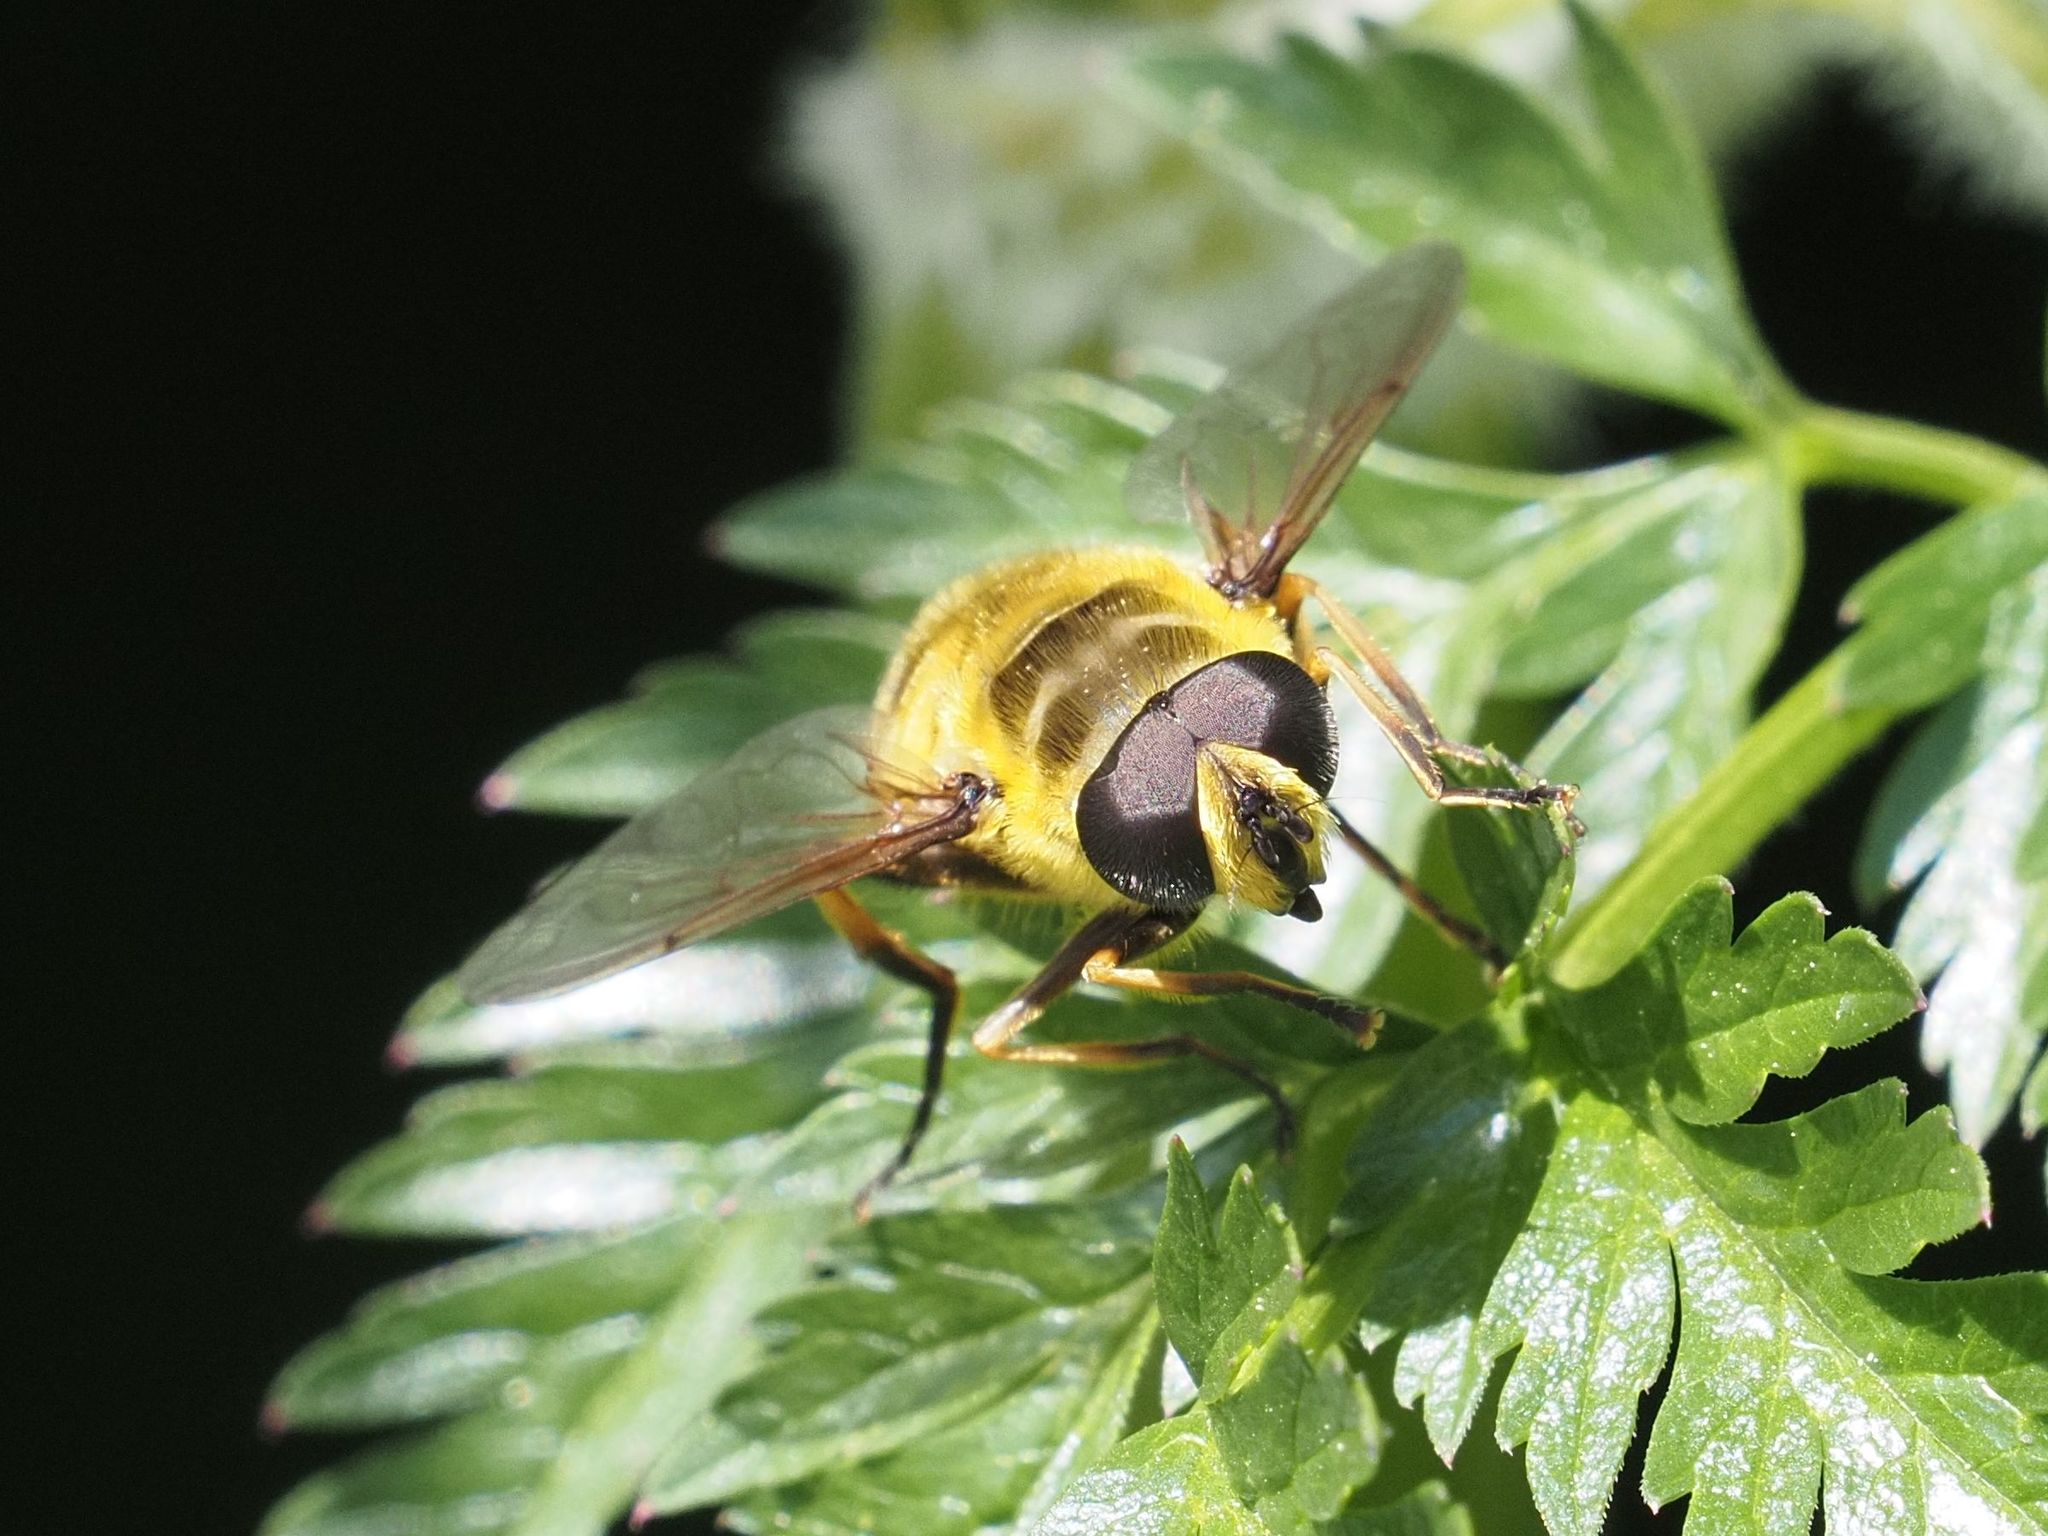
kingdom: Animalia
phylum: Arthropoda
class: Insecta
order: Diptera
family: Syrphidae
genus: Myathropa
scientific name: Myathropa florea
